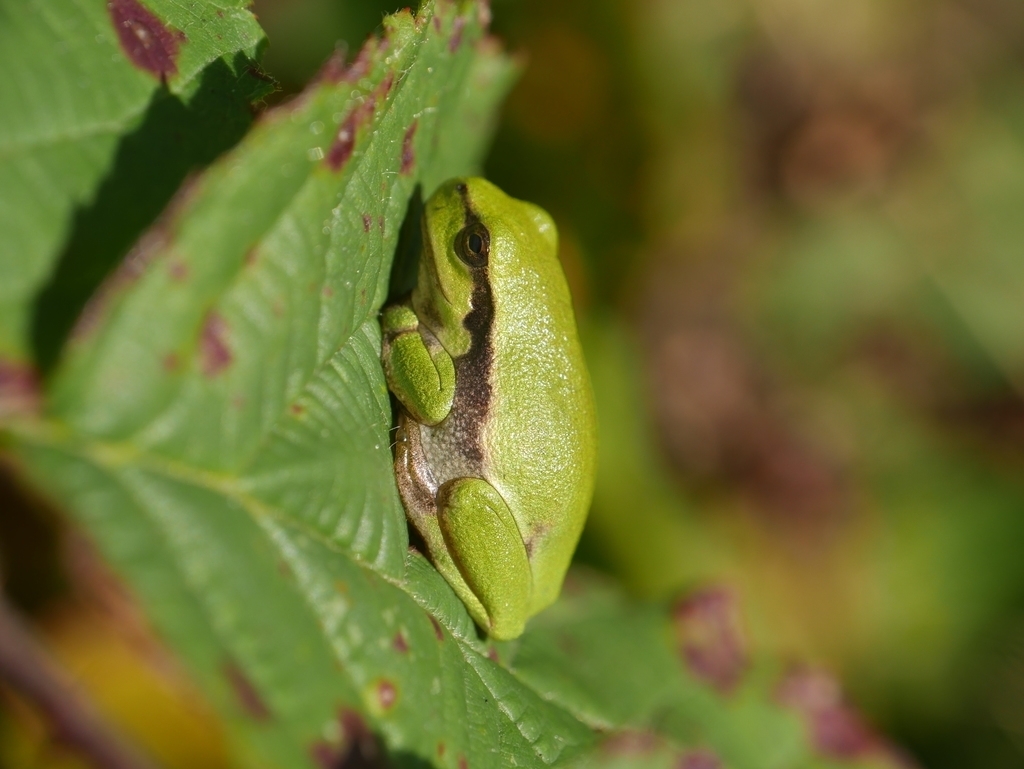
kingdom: Animalia
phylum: Chordata
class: Amphibia
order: Anura
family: Hylidae
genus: Hyla
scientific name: Hyla arborea
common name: Common tree frog
